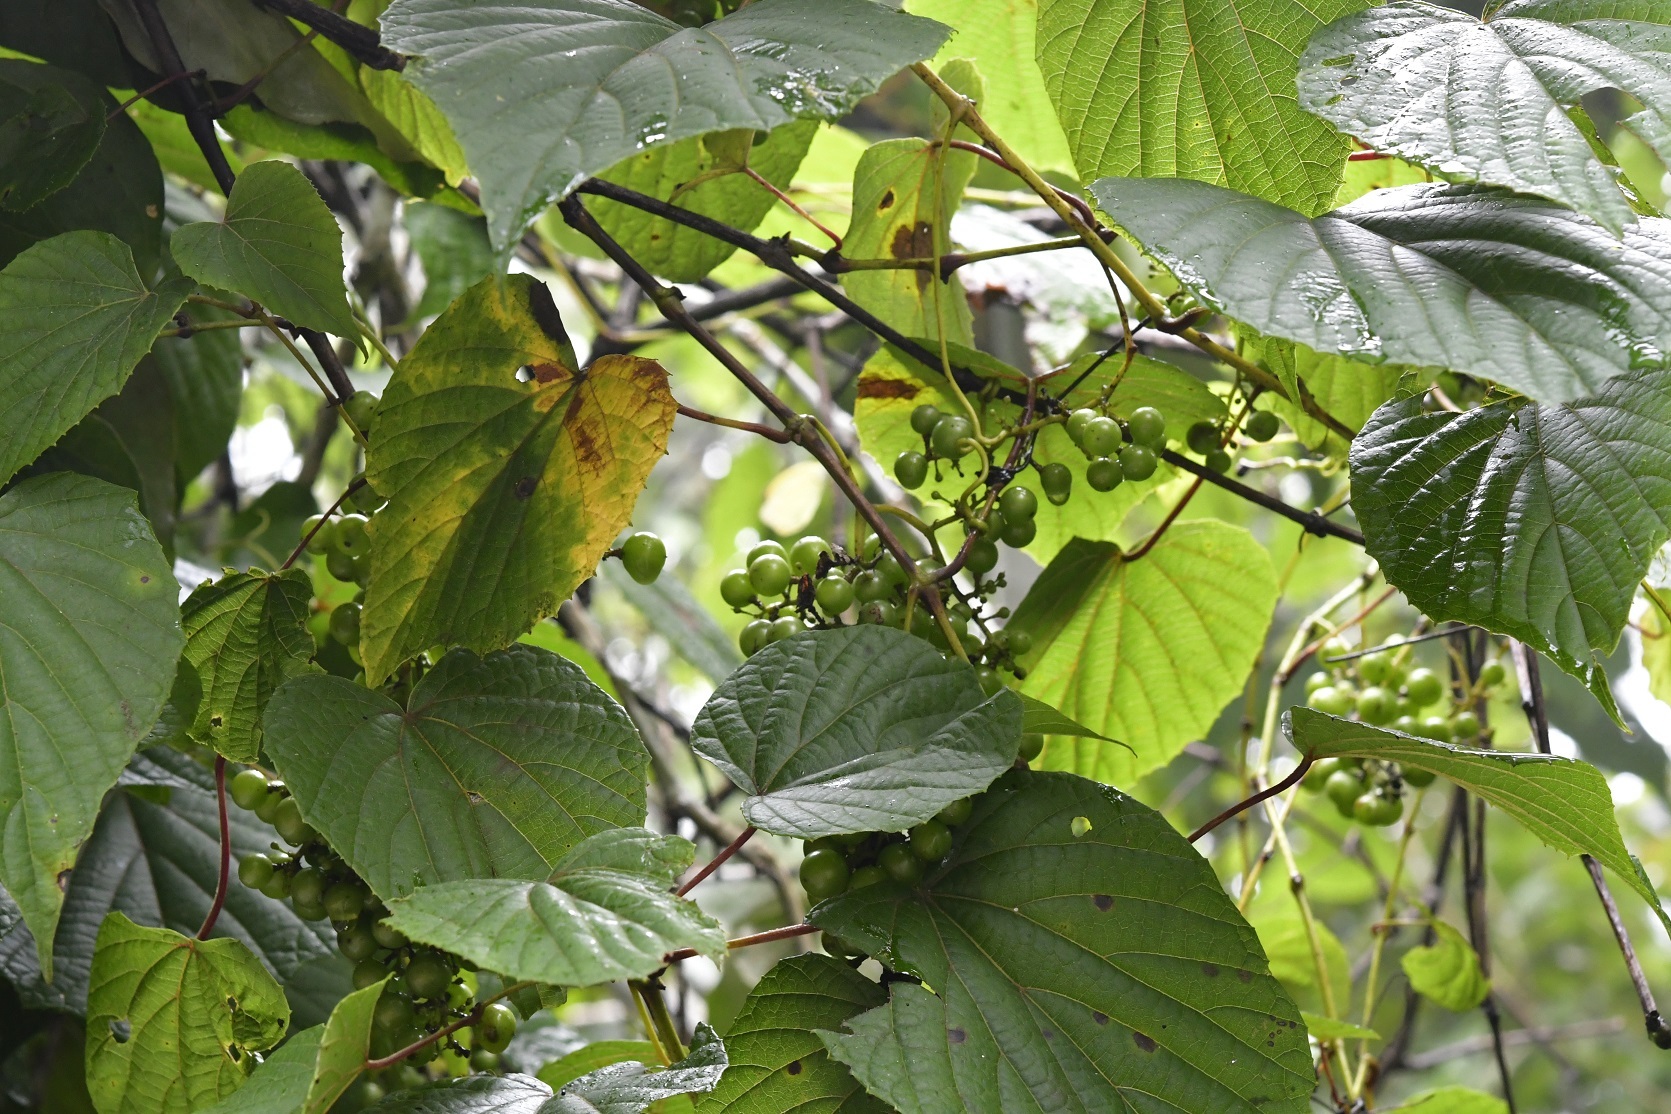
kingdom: Plantae
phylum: Tracheophyta
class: Magnoliopsida
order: Vitales
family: Vitaceae
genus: Vitis
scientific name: Vitis tiliifolia
